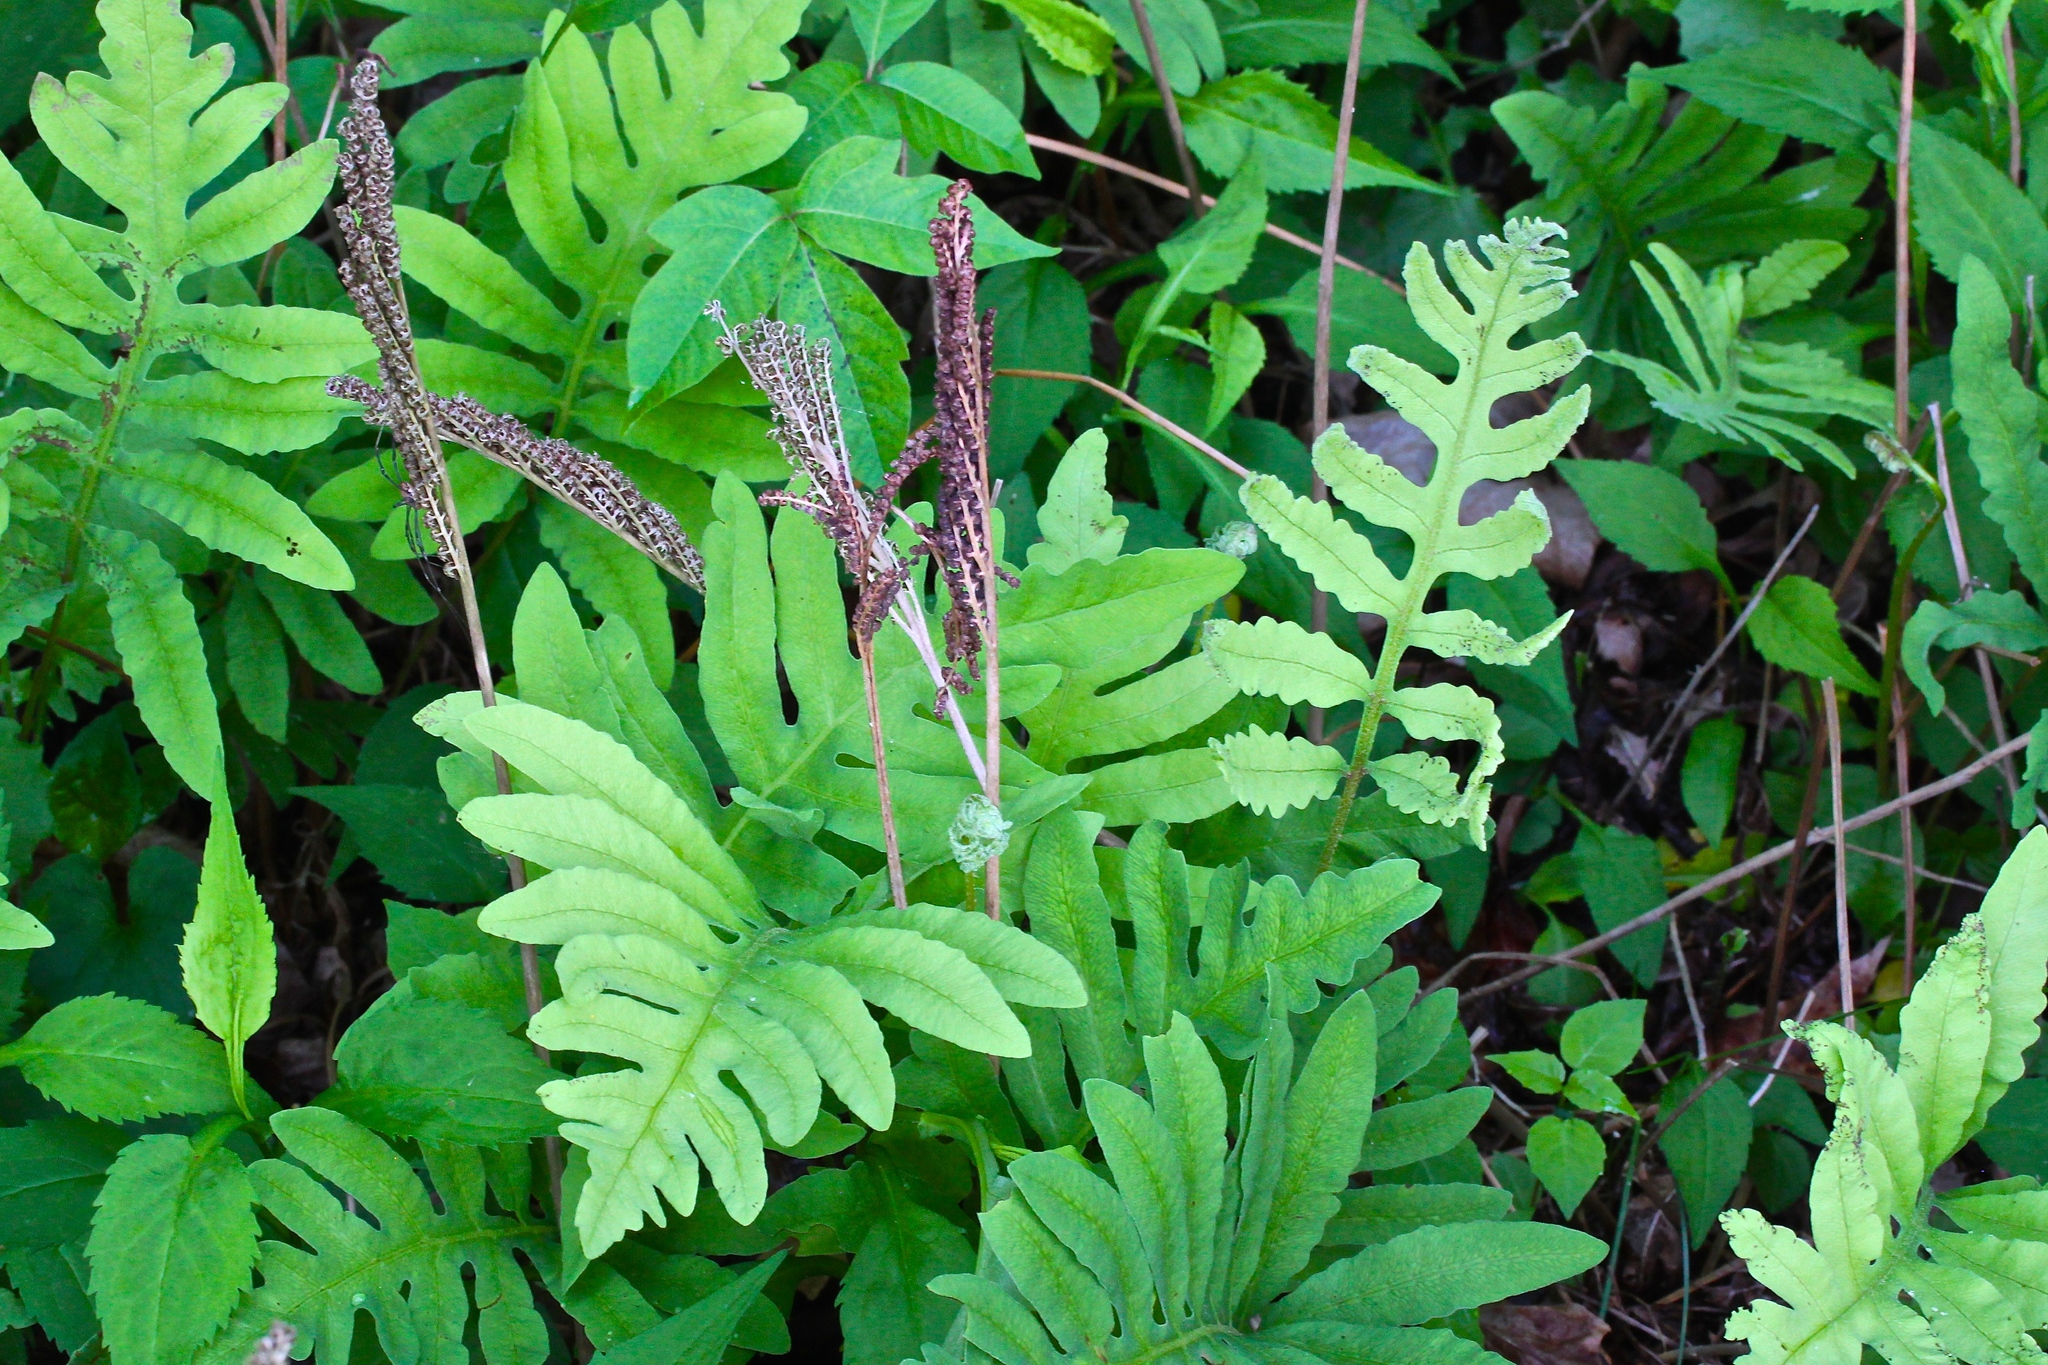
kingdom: Plantae
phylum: Tracheophyta
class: Polypodiopsida
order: Polypodiales
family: Onocleaceae
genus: Onoclea
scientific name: Onoclea sensibilis
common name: Sensitive fern
